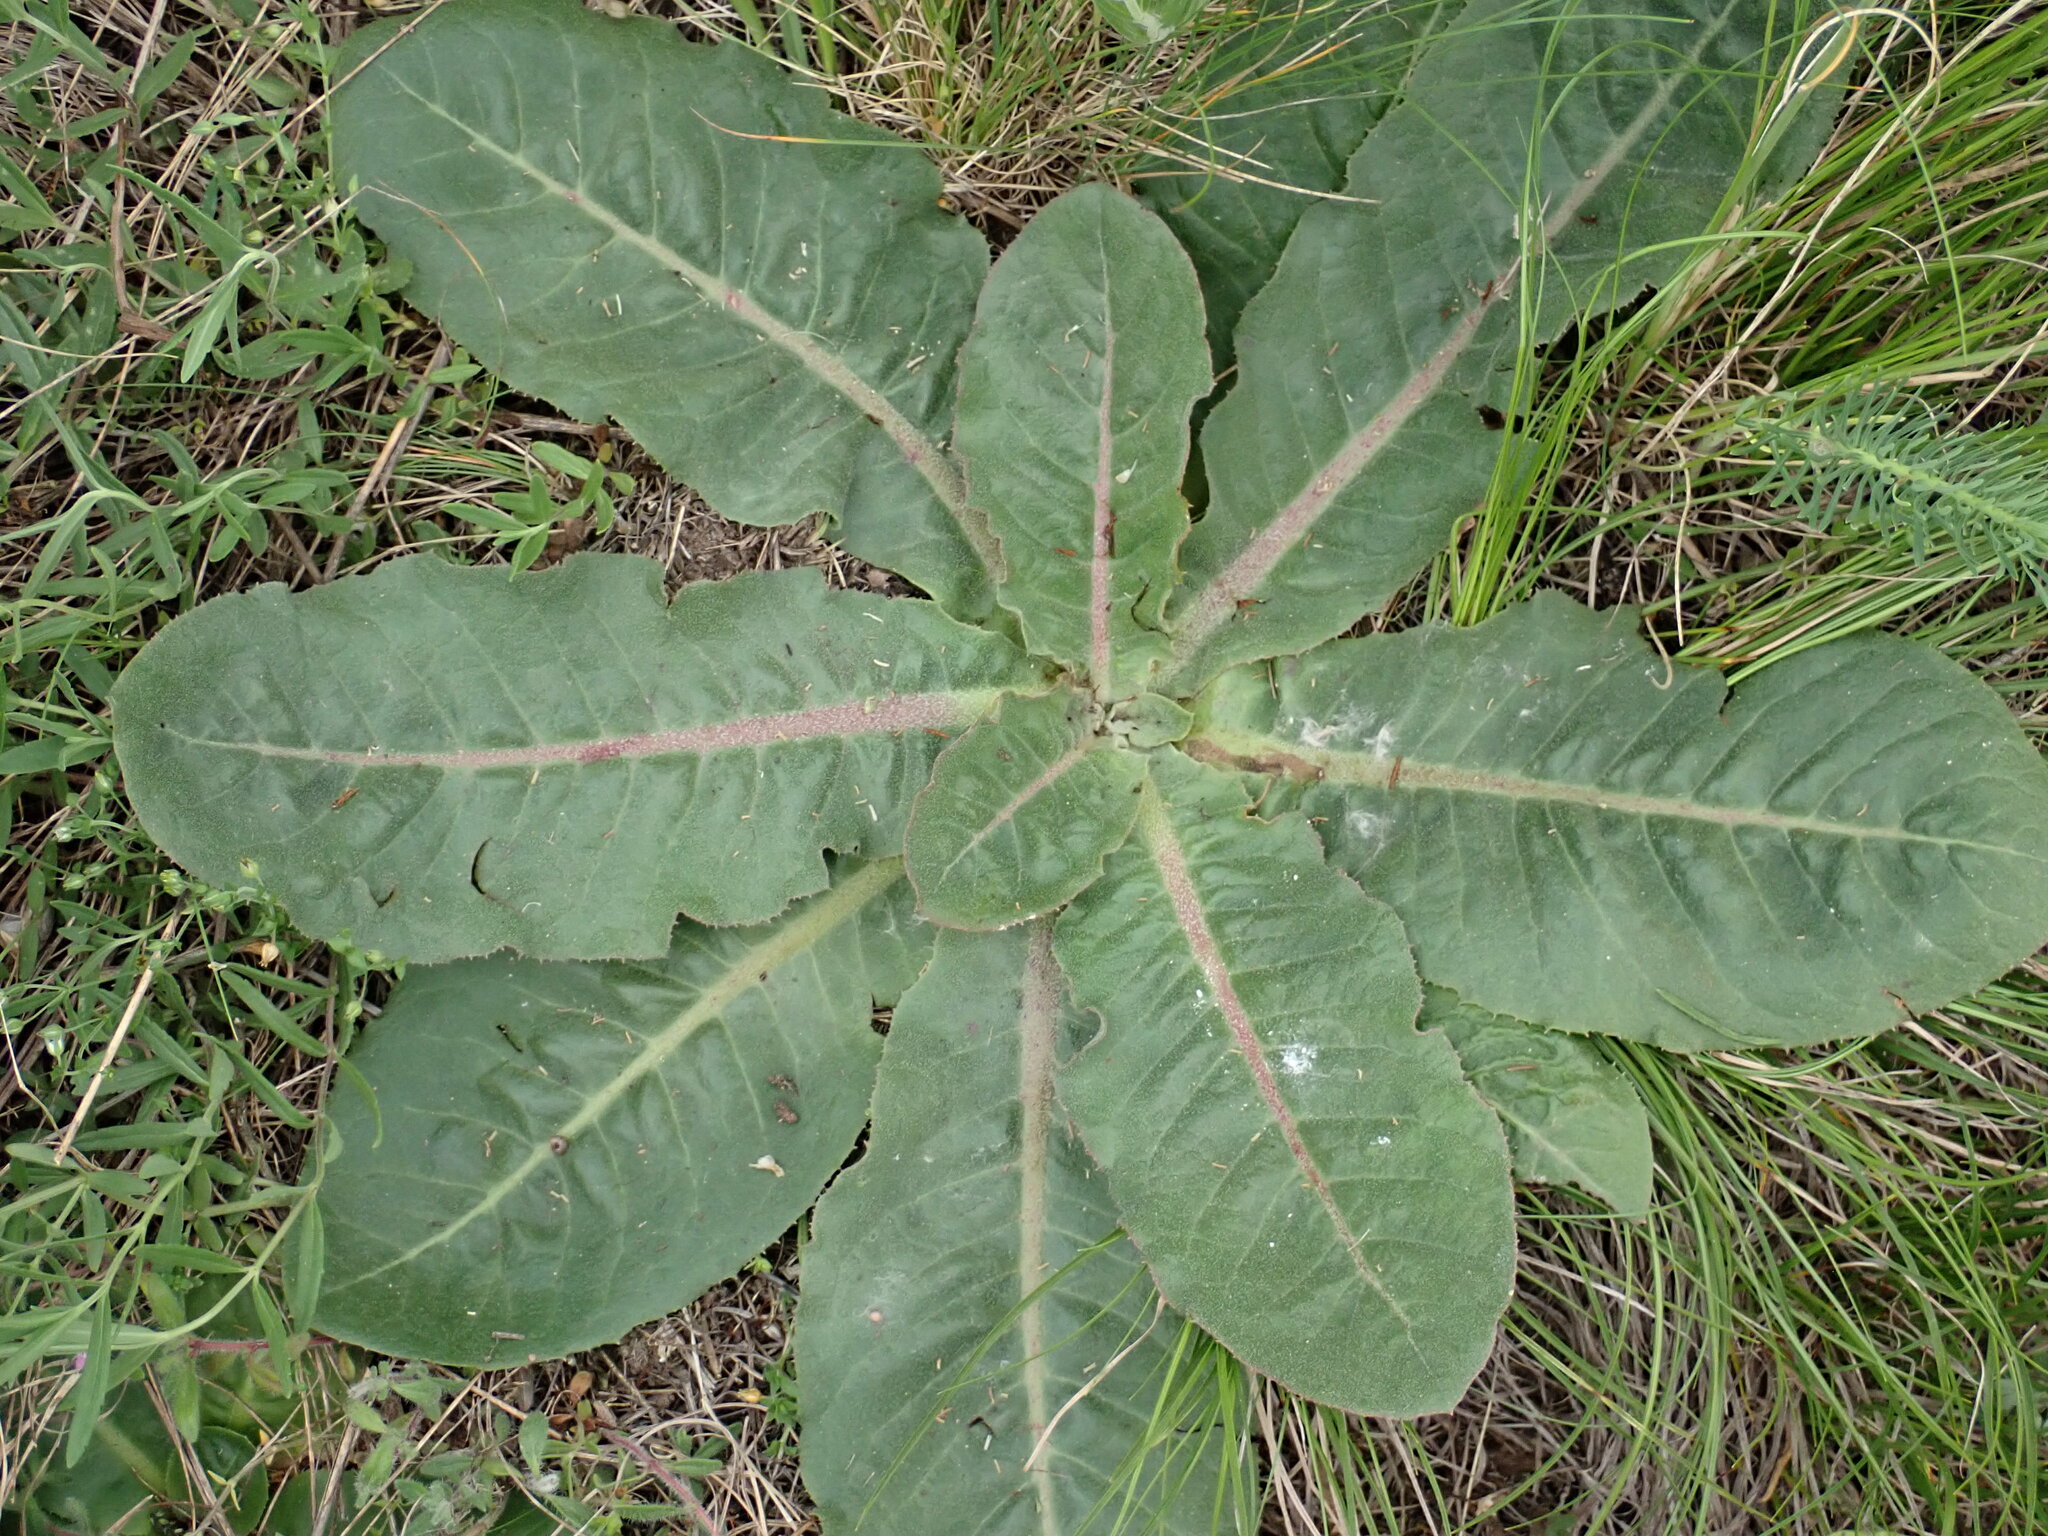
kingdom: Plantae
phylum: Tracheophyta
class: Magnoliopsida
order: Asterales
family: Asteraceae
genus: Taraxacum
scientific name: Taraxacum serotinum
